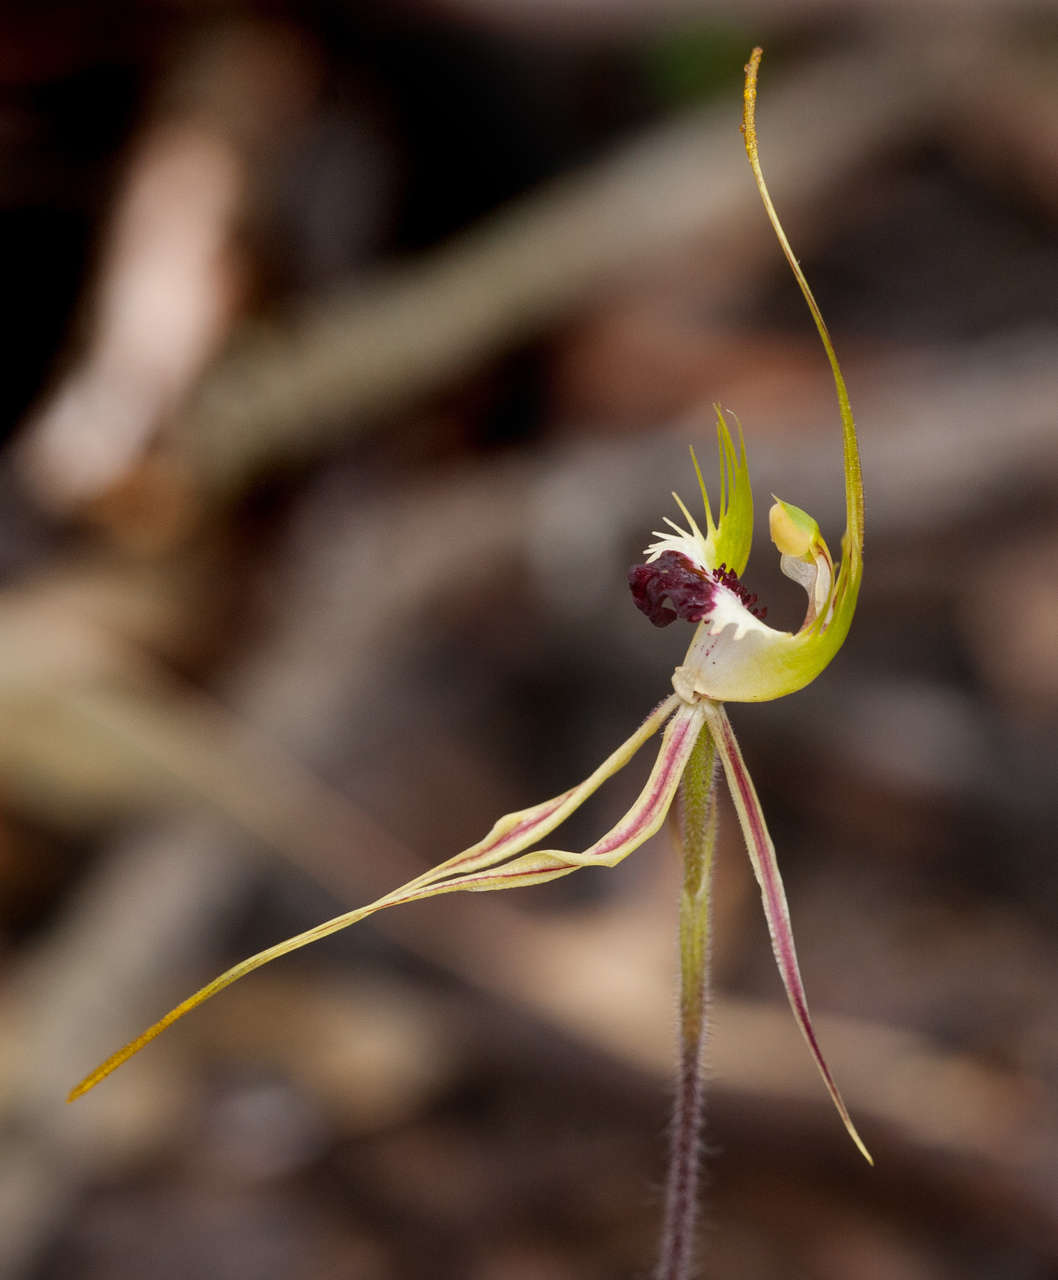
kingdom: Plantae
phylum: Tracheophyta
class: Liliopsida
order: Asparagales
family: Orchidaceae
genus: Caladenia
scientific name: Caladenia tentaculata
